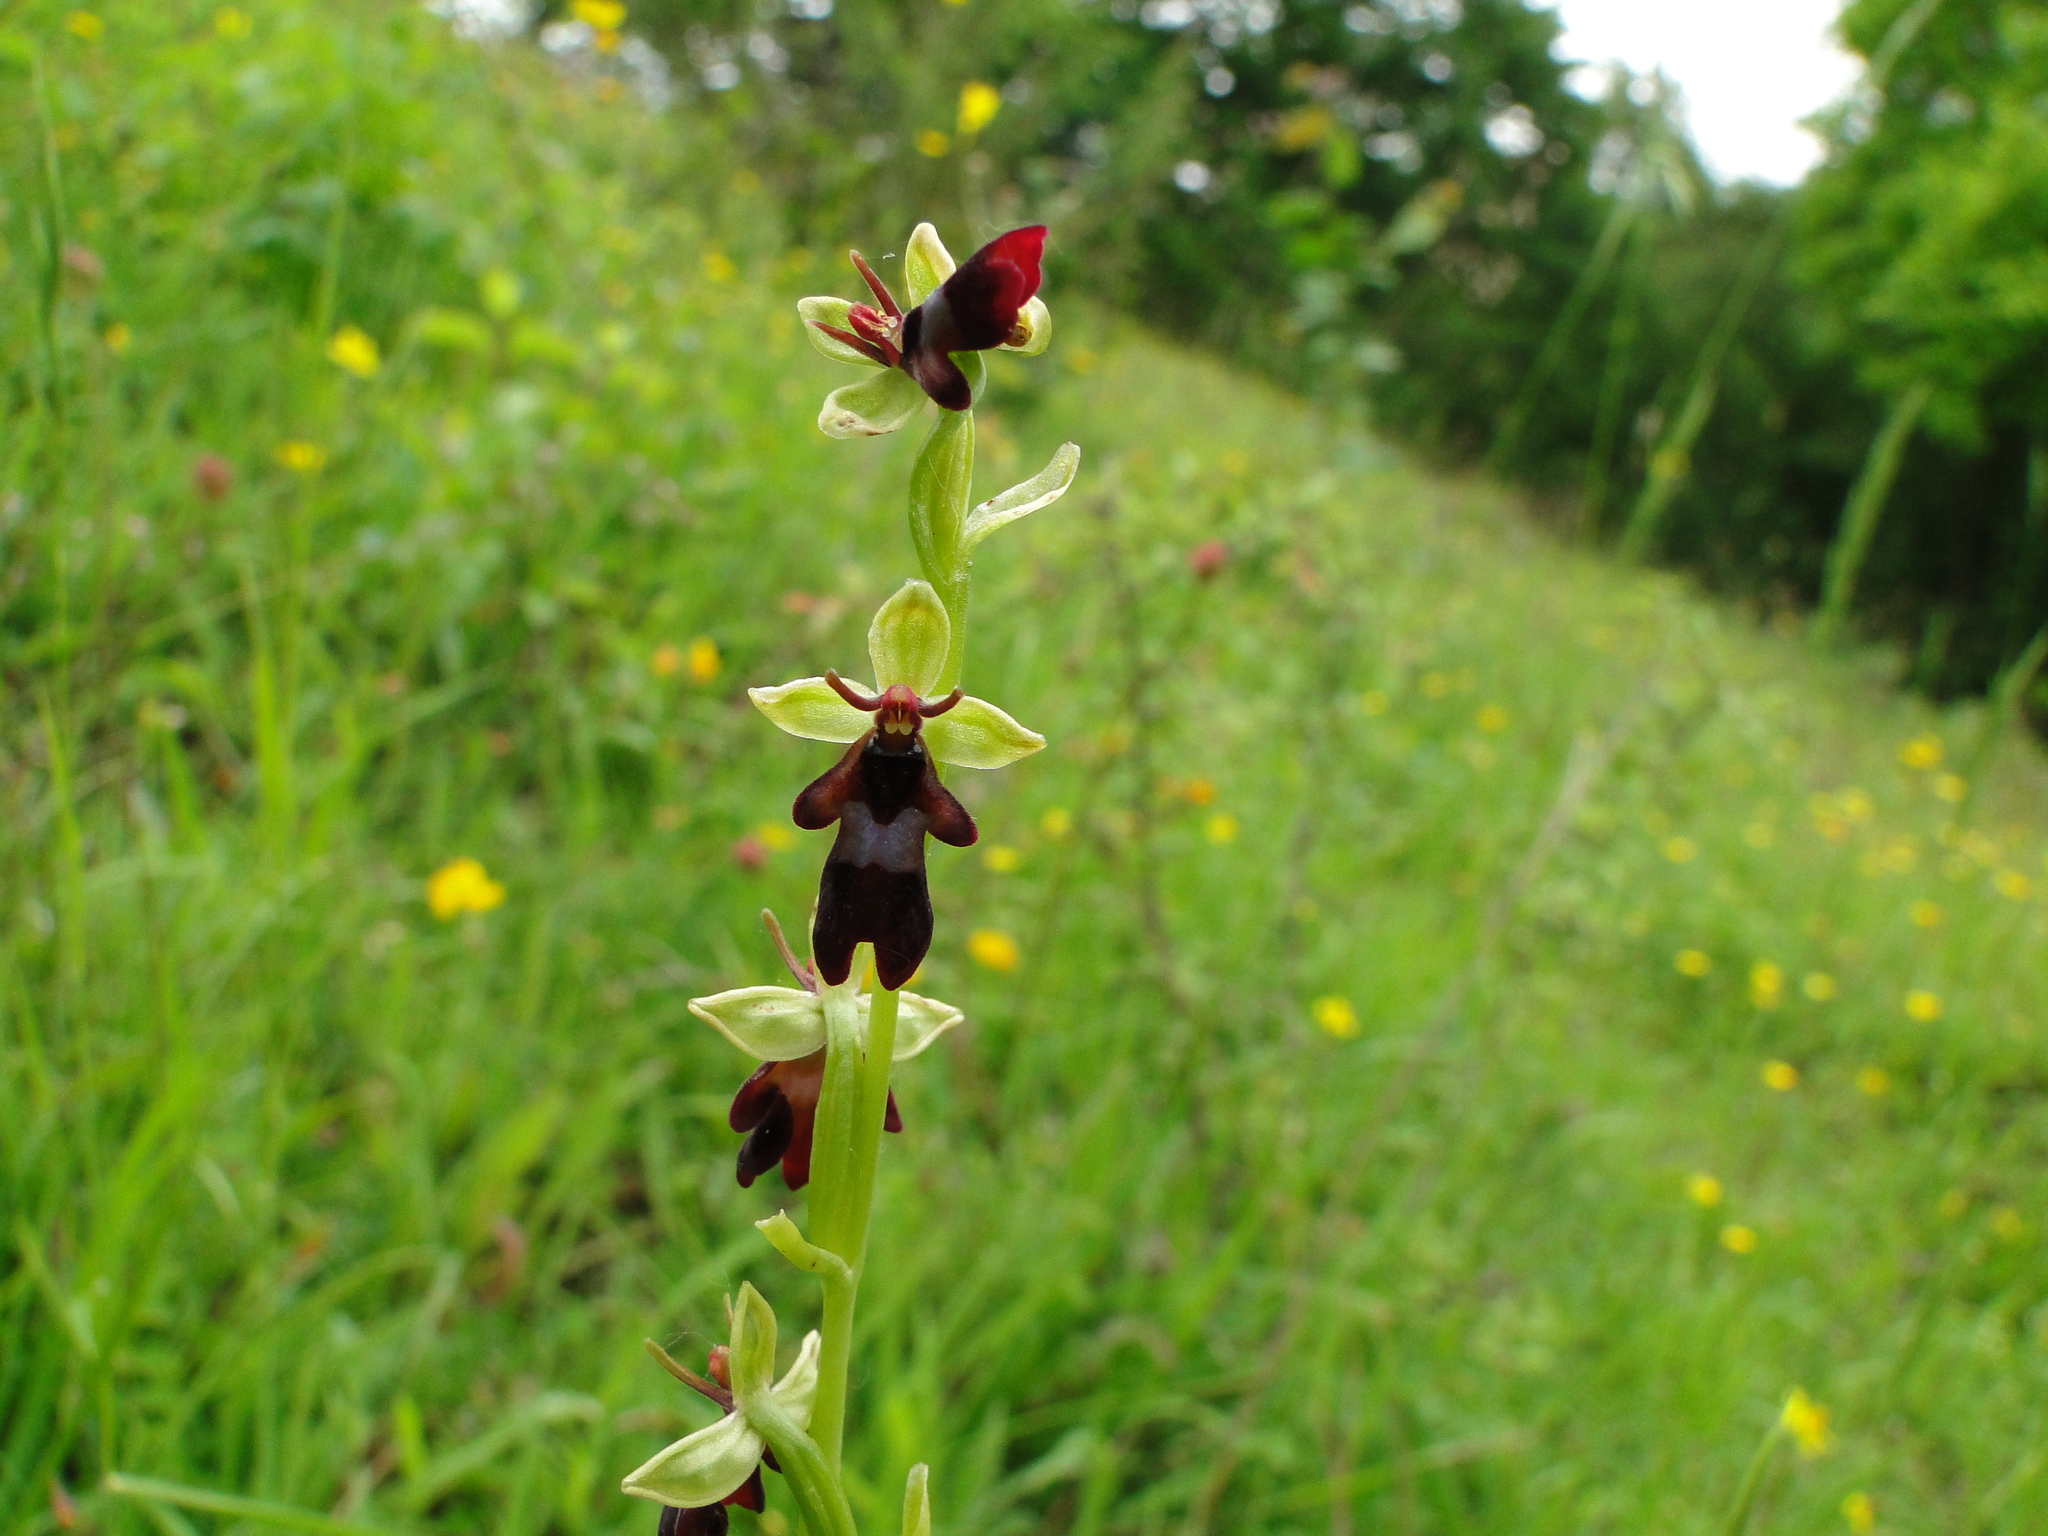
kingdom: Plantae
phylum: Tracheophyta
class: Liliopsida
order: Asparagales
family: Orchidaceae
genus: Ophrys
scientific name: Ophrys insectifera
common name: Fly orchid
